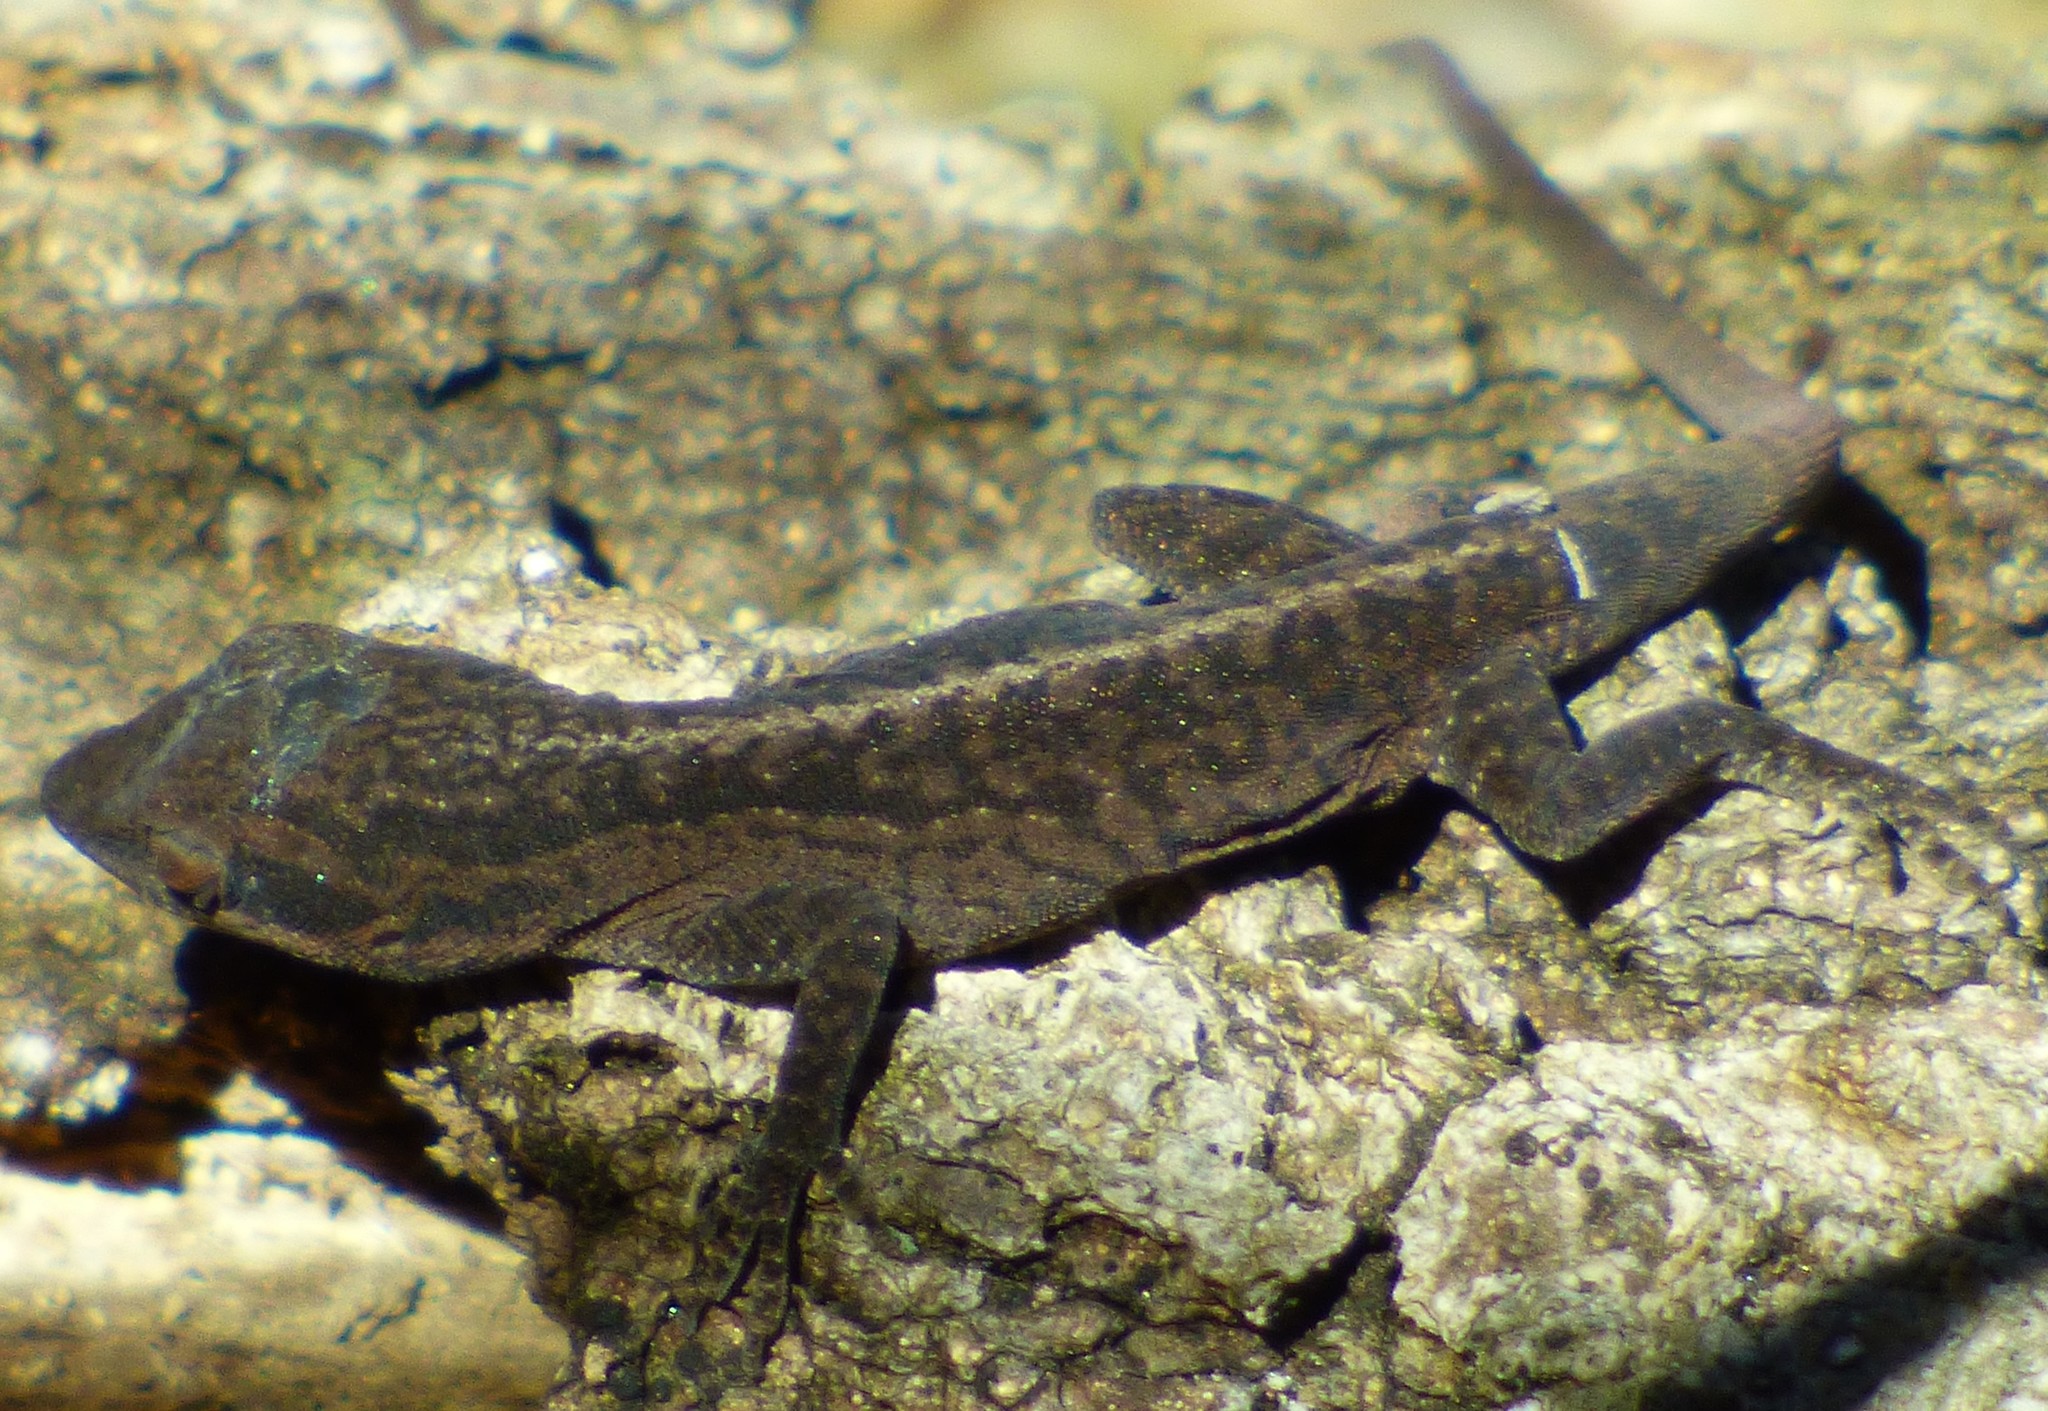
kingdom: Animalia
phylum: Chordata
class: Squamata
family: Dactyloidae
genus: Anolis
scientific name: Anolis carolinensis
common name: Green anole
